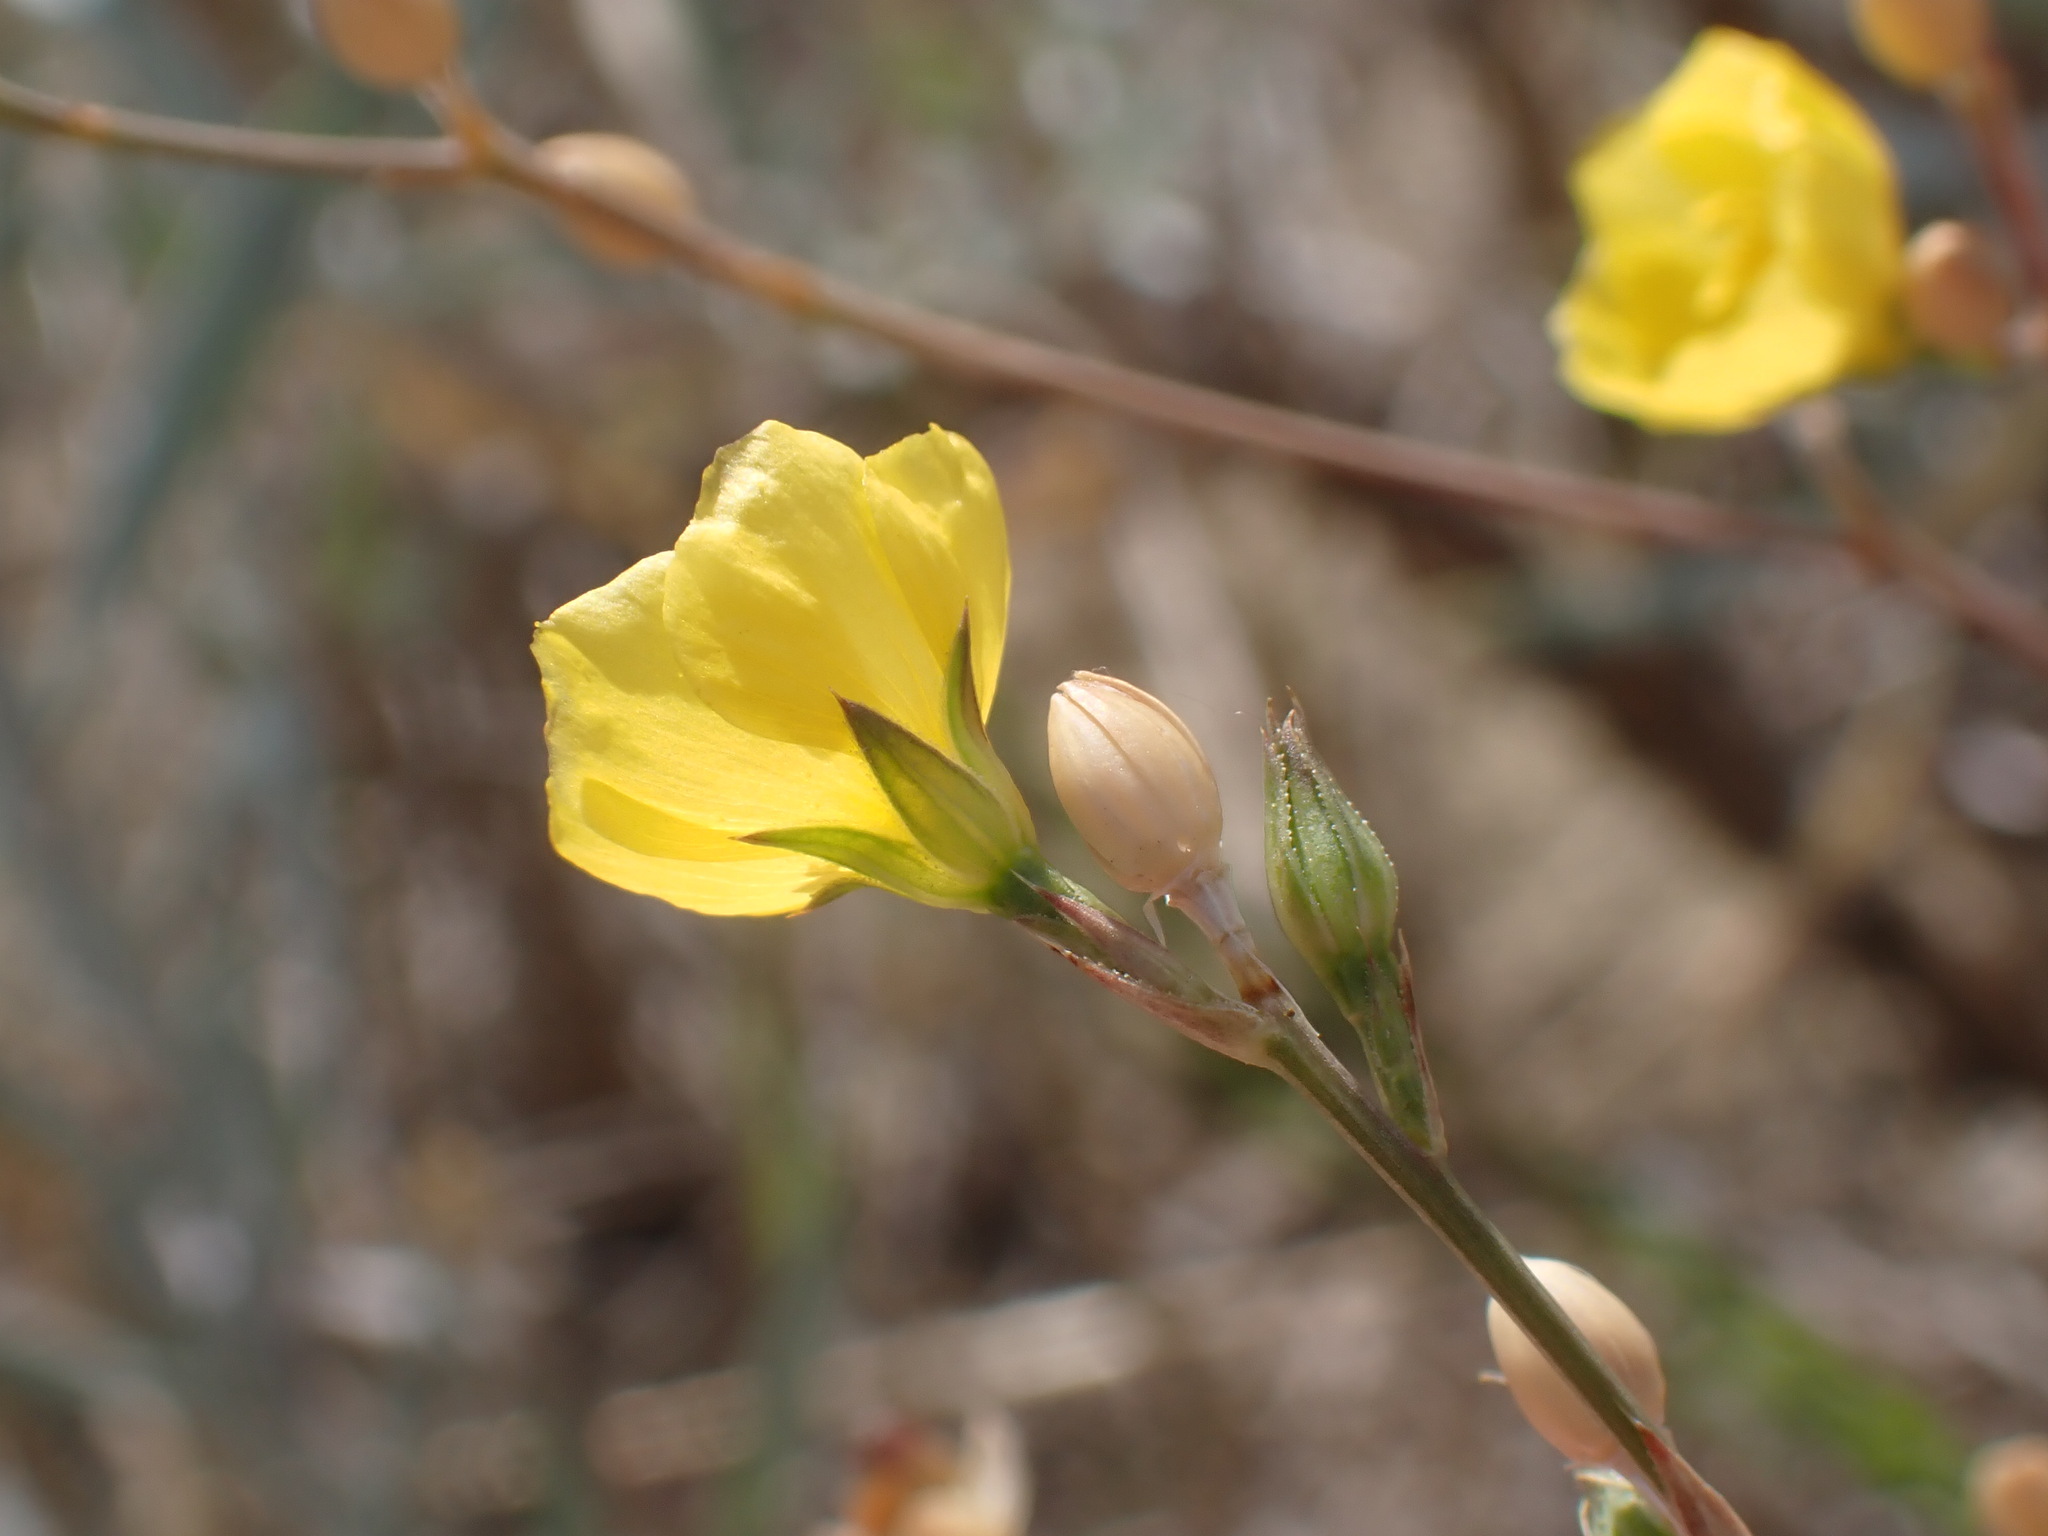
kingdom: Plantae
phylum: Tracheophyta
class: Magnoliopsida
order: Malpighiales
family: Linaceae
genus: Linum
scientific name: Linum rigidum
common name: Stiff-stem flax
